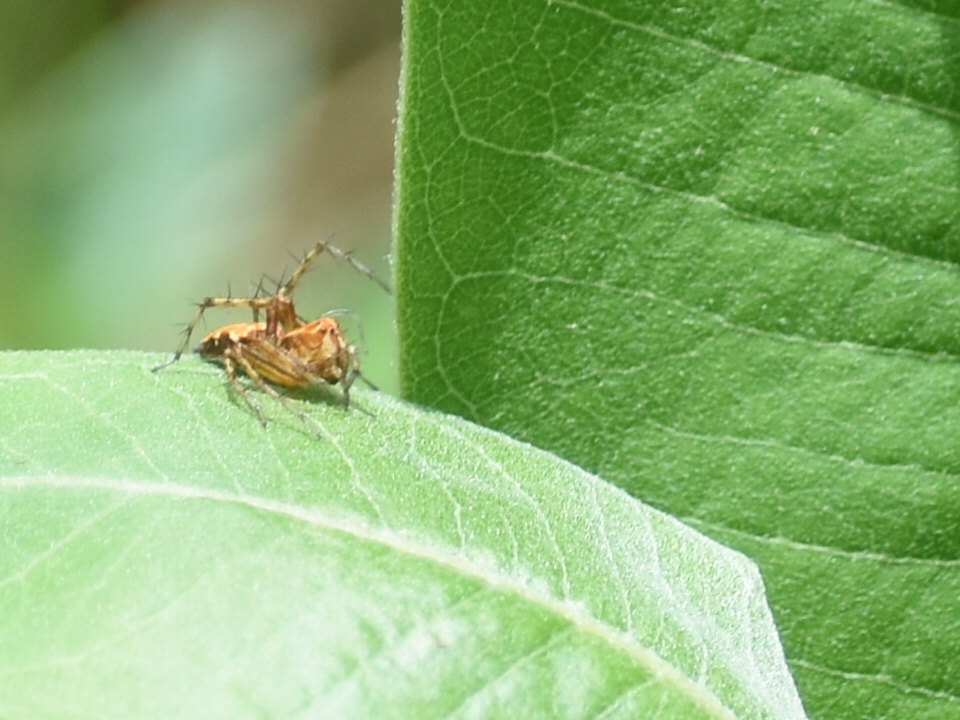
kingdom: Animalia
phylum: Arthropoda
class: Arachnida
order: Araneae
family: Oxyopidae
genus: Oxyopes
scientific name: Oxyopes scalaris
